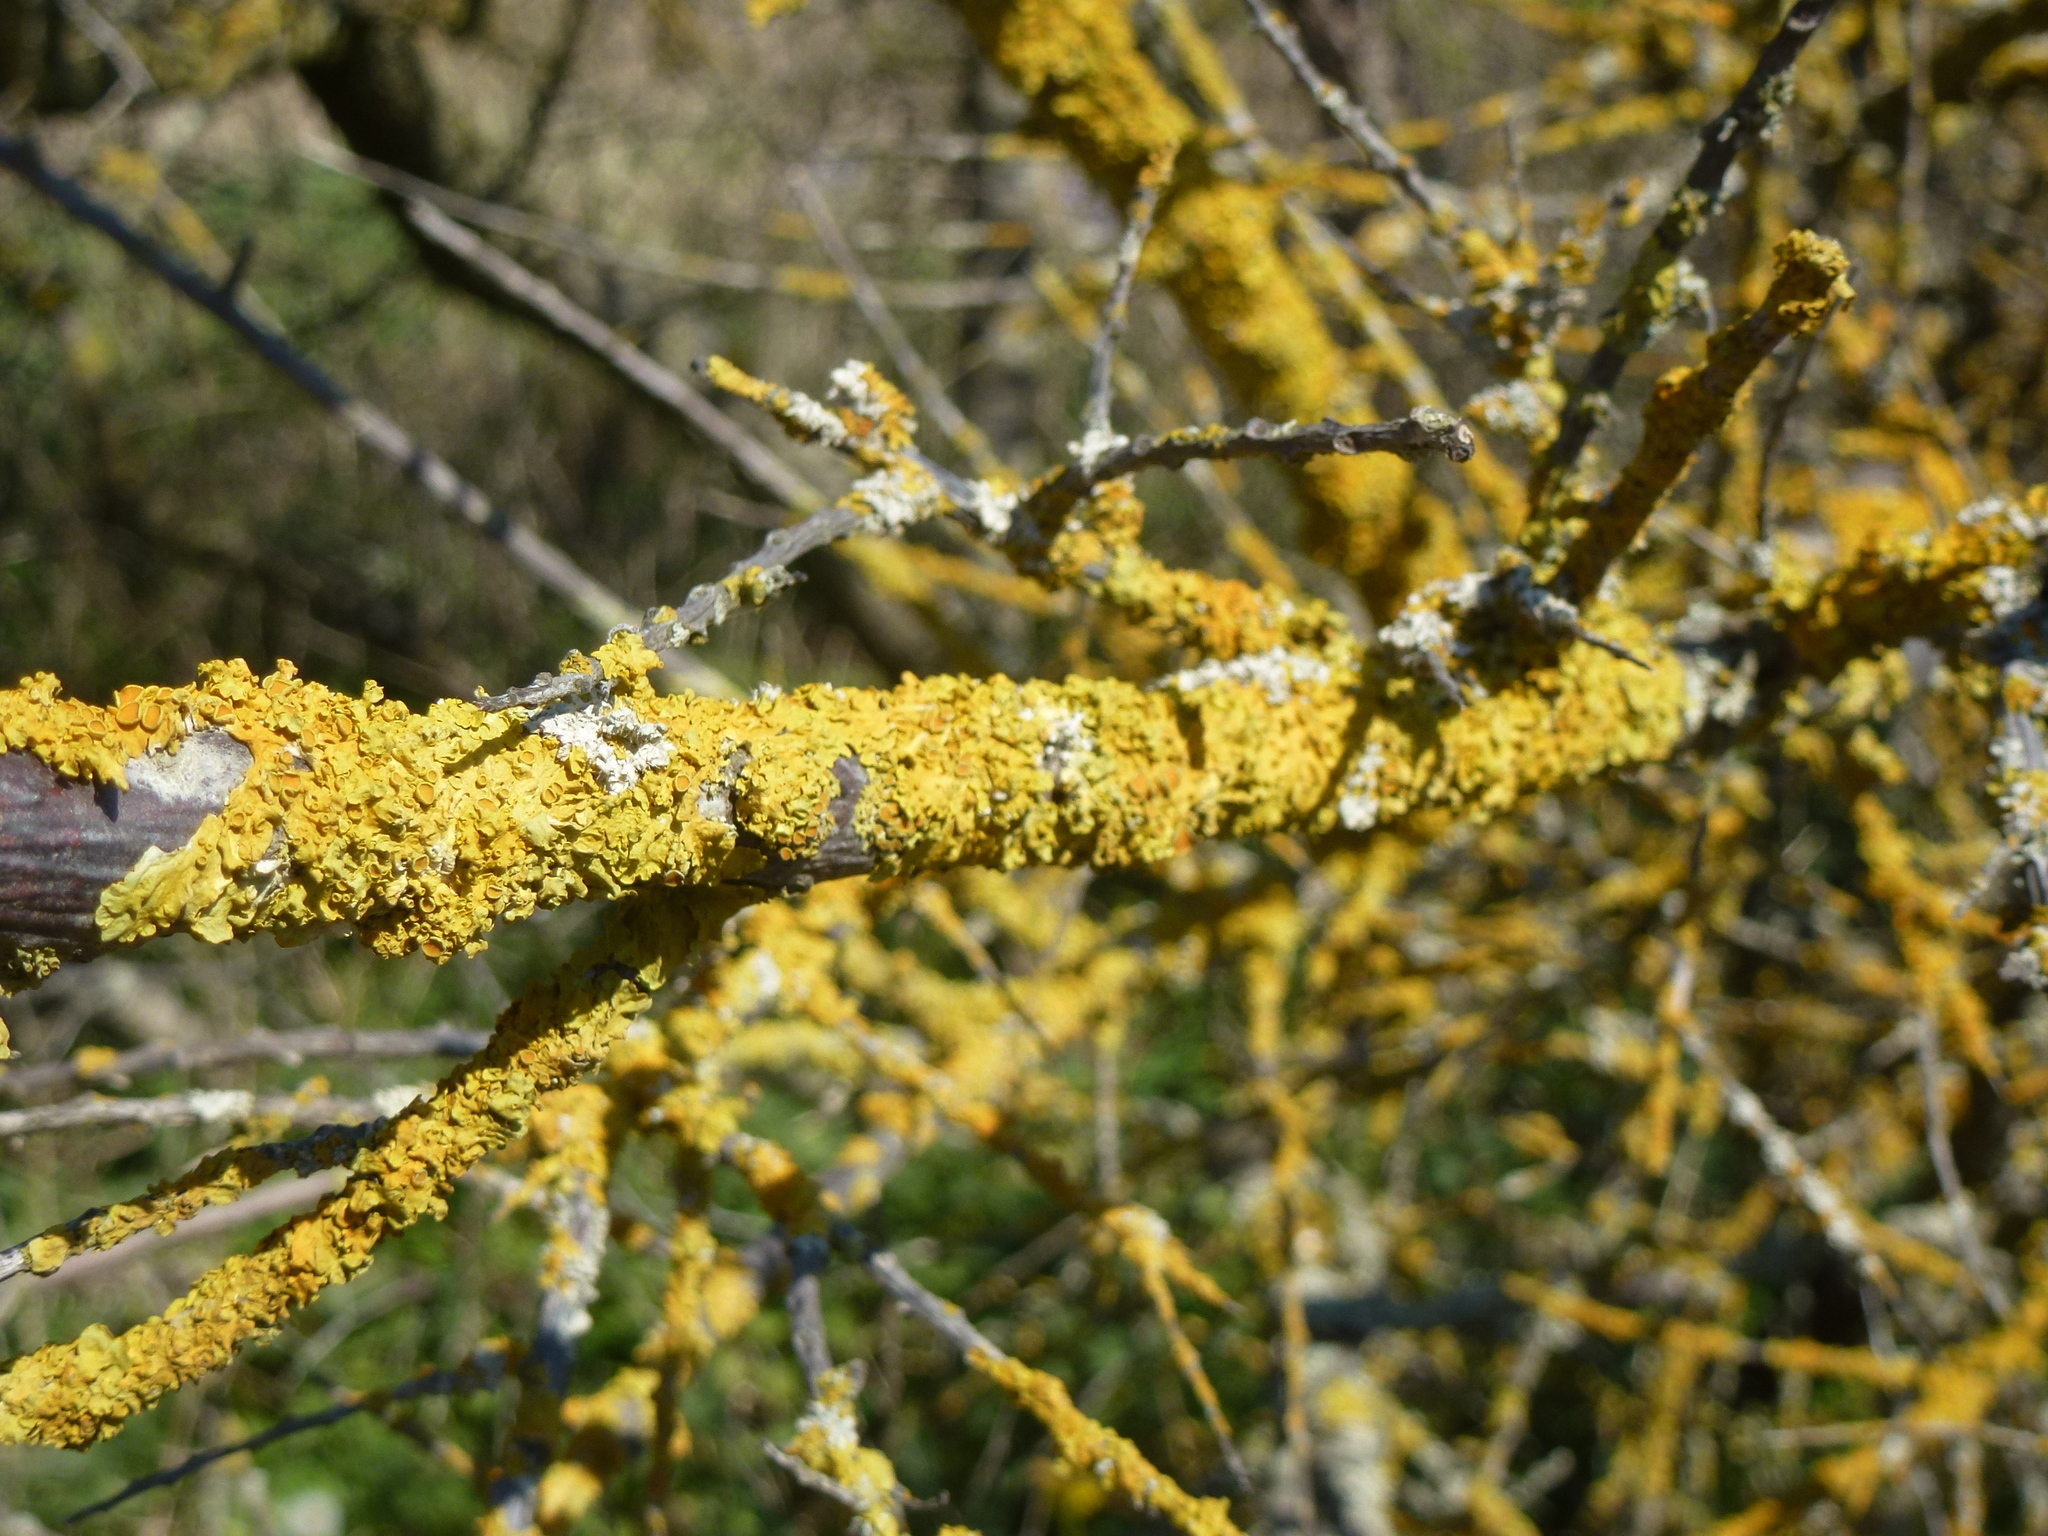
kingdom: Fungi
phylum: Ascomycota
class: Lecanoromycetes
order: Teloschistales
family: Teloschistaceae
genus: Xanthoria
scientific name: Xanthoria parietina
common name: Common orange lichen
